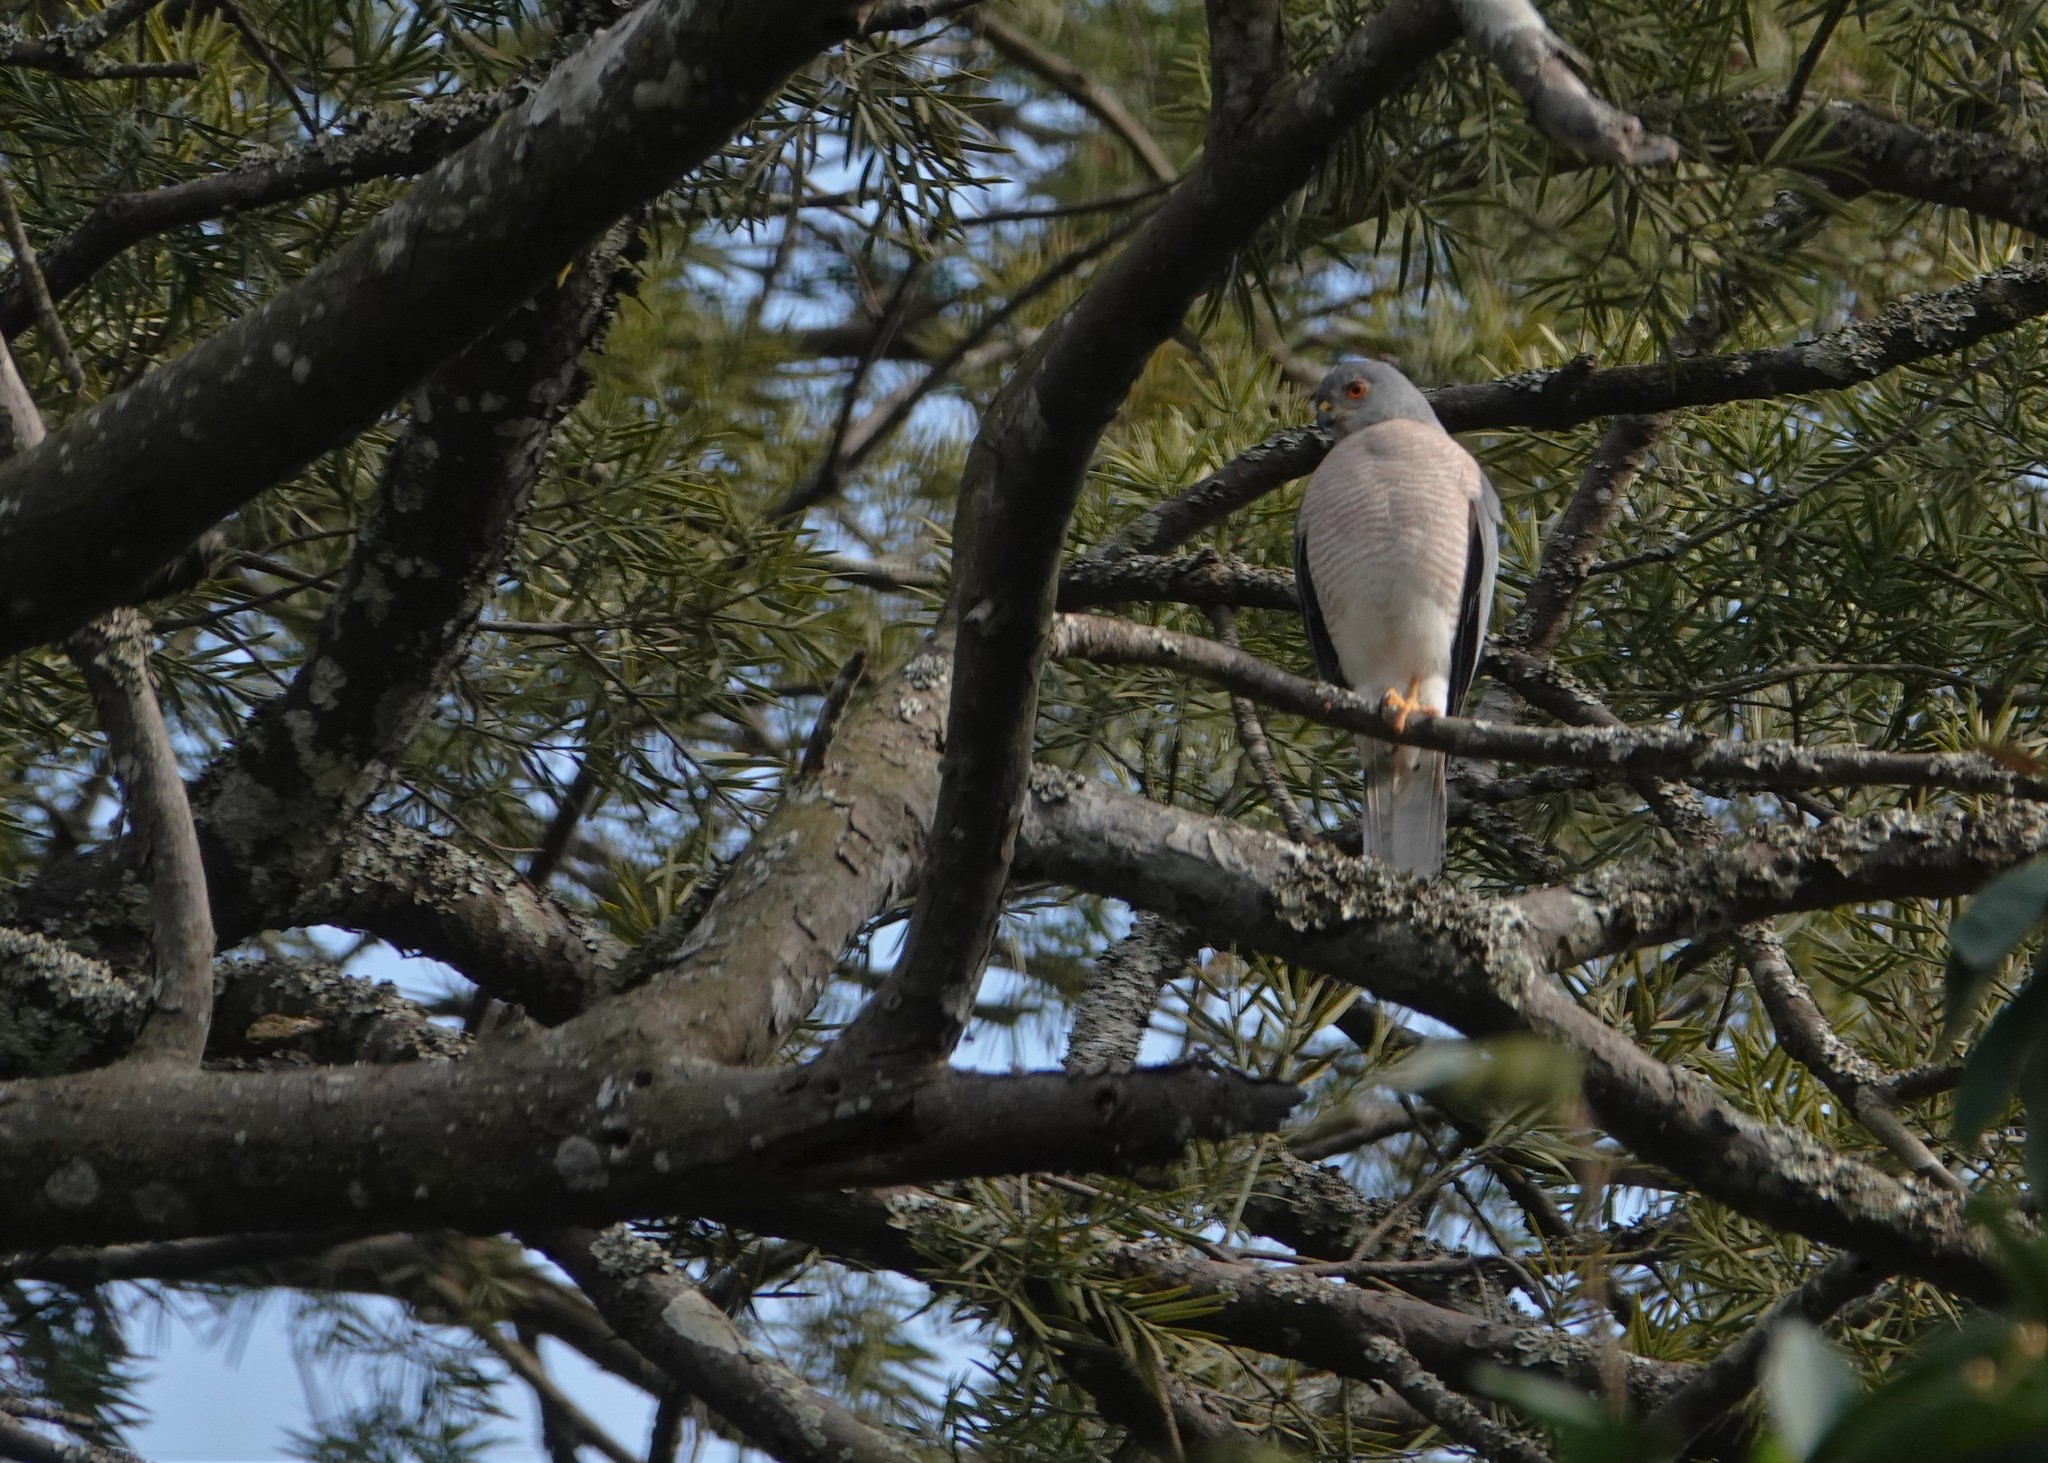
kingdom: Animalia
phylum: Chordata
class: Aves
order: Accipitriformes
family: Accipitridae
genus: Accipiter
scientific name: Accipiter badius
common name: Shikra
